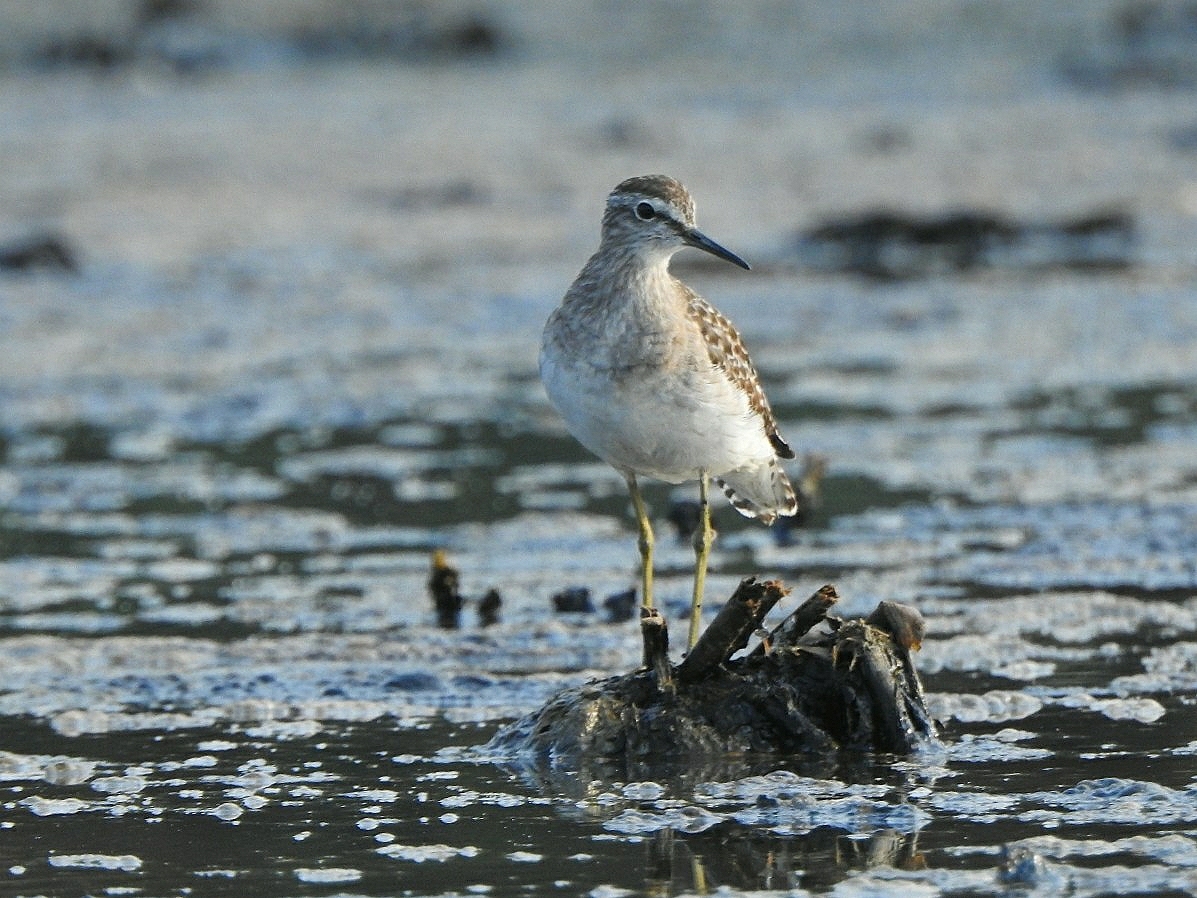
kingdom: Animalia
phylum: Chordata
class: Aves
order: Charadriiformes
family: Scolopacidae
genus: Tringa
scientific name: Tringa glareola
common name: Wood sandpiper
